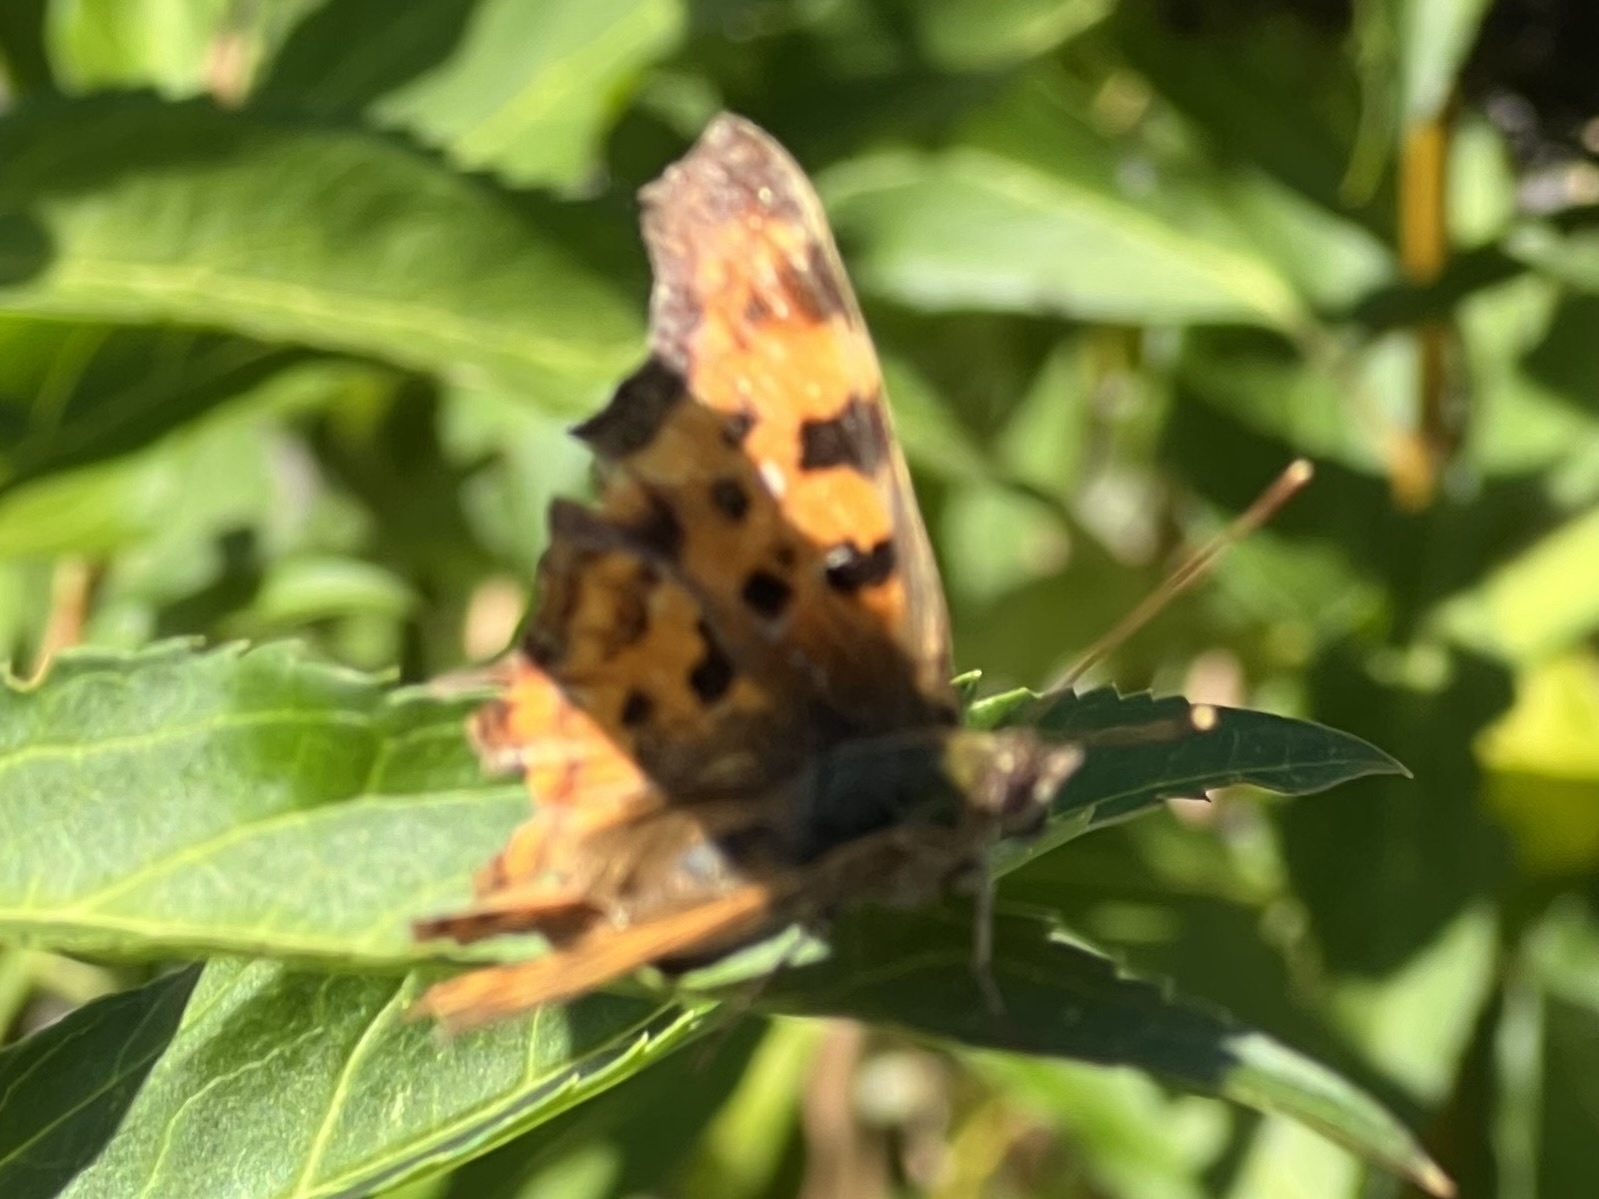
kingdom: Animalia
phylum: Arthropoda
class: Insecta
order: Lepidoptera
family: Nymphalidae
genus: Polygonia
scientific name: Polygonia c-album
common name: Comma
